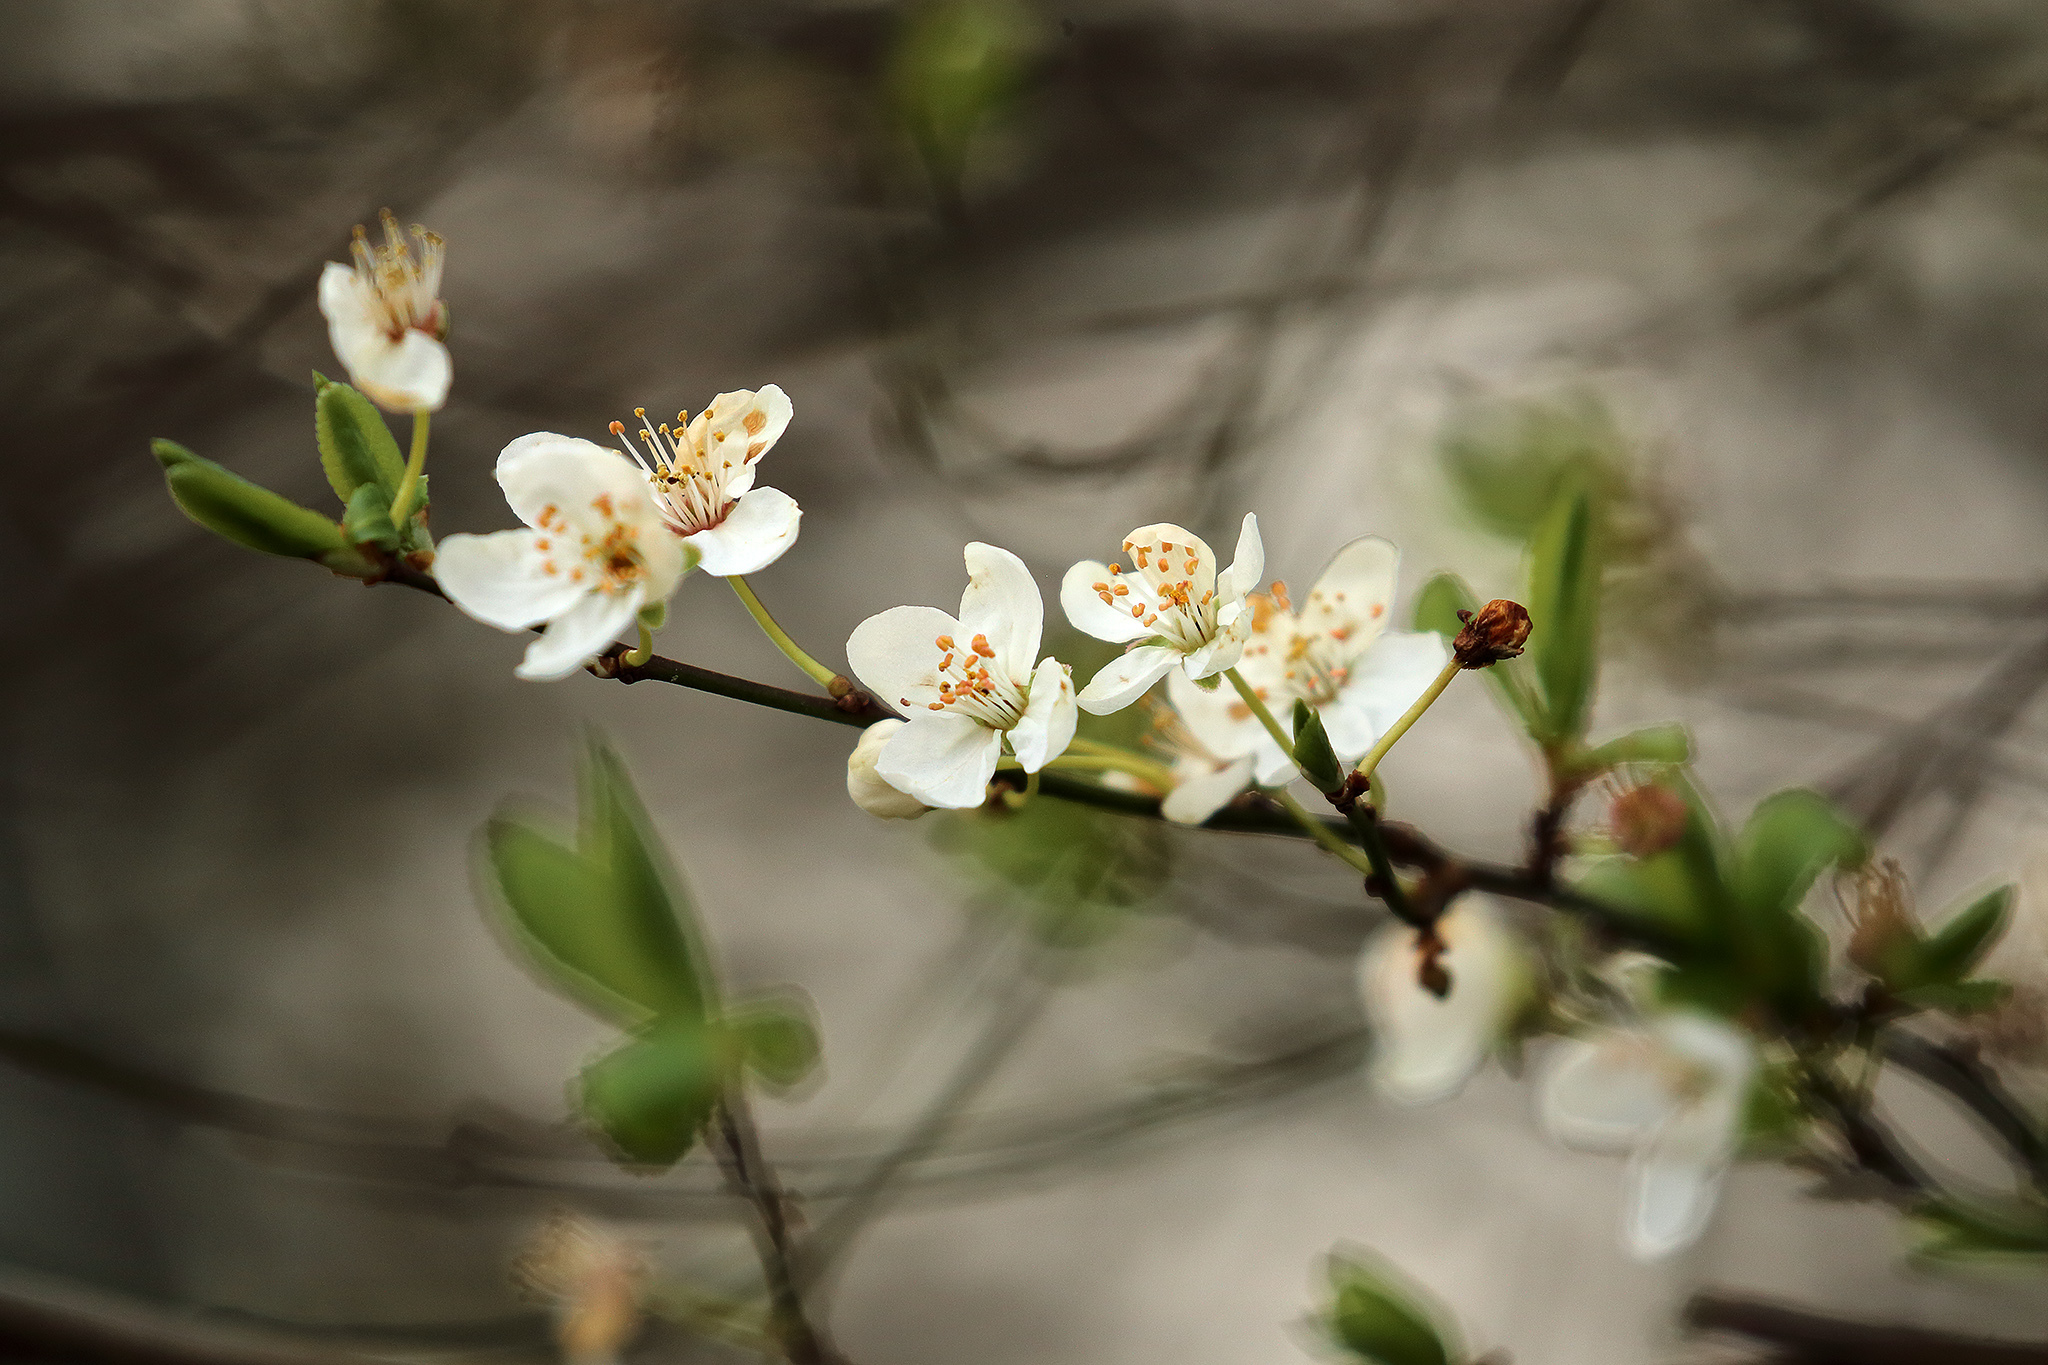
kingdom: Plantae
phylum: Tracheophyta
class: Magnoliopsida
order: Rosales
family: Rosaceae
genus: Prunus
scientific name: Prunus cerasifera
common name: Cherry plum
